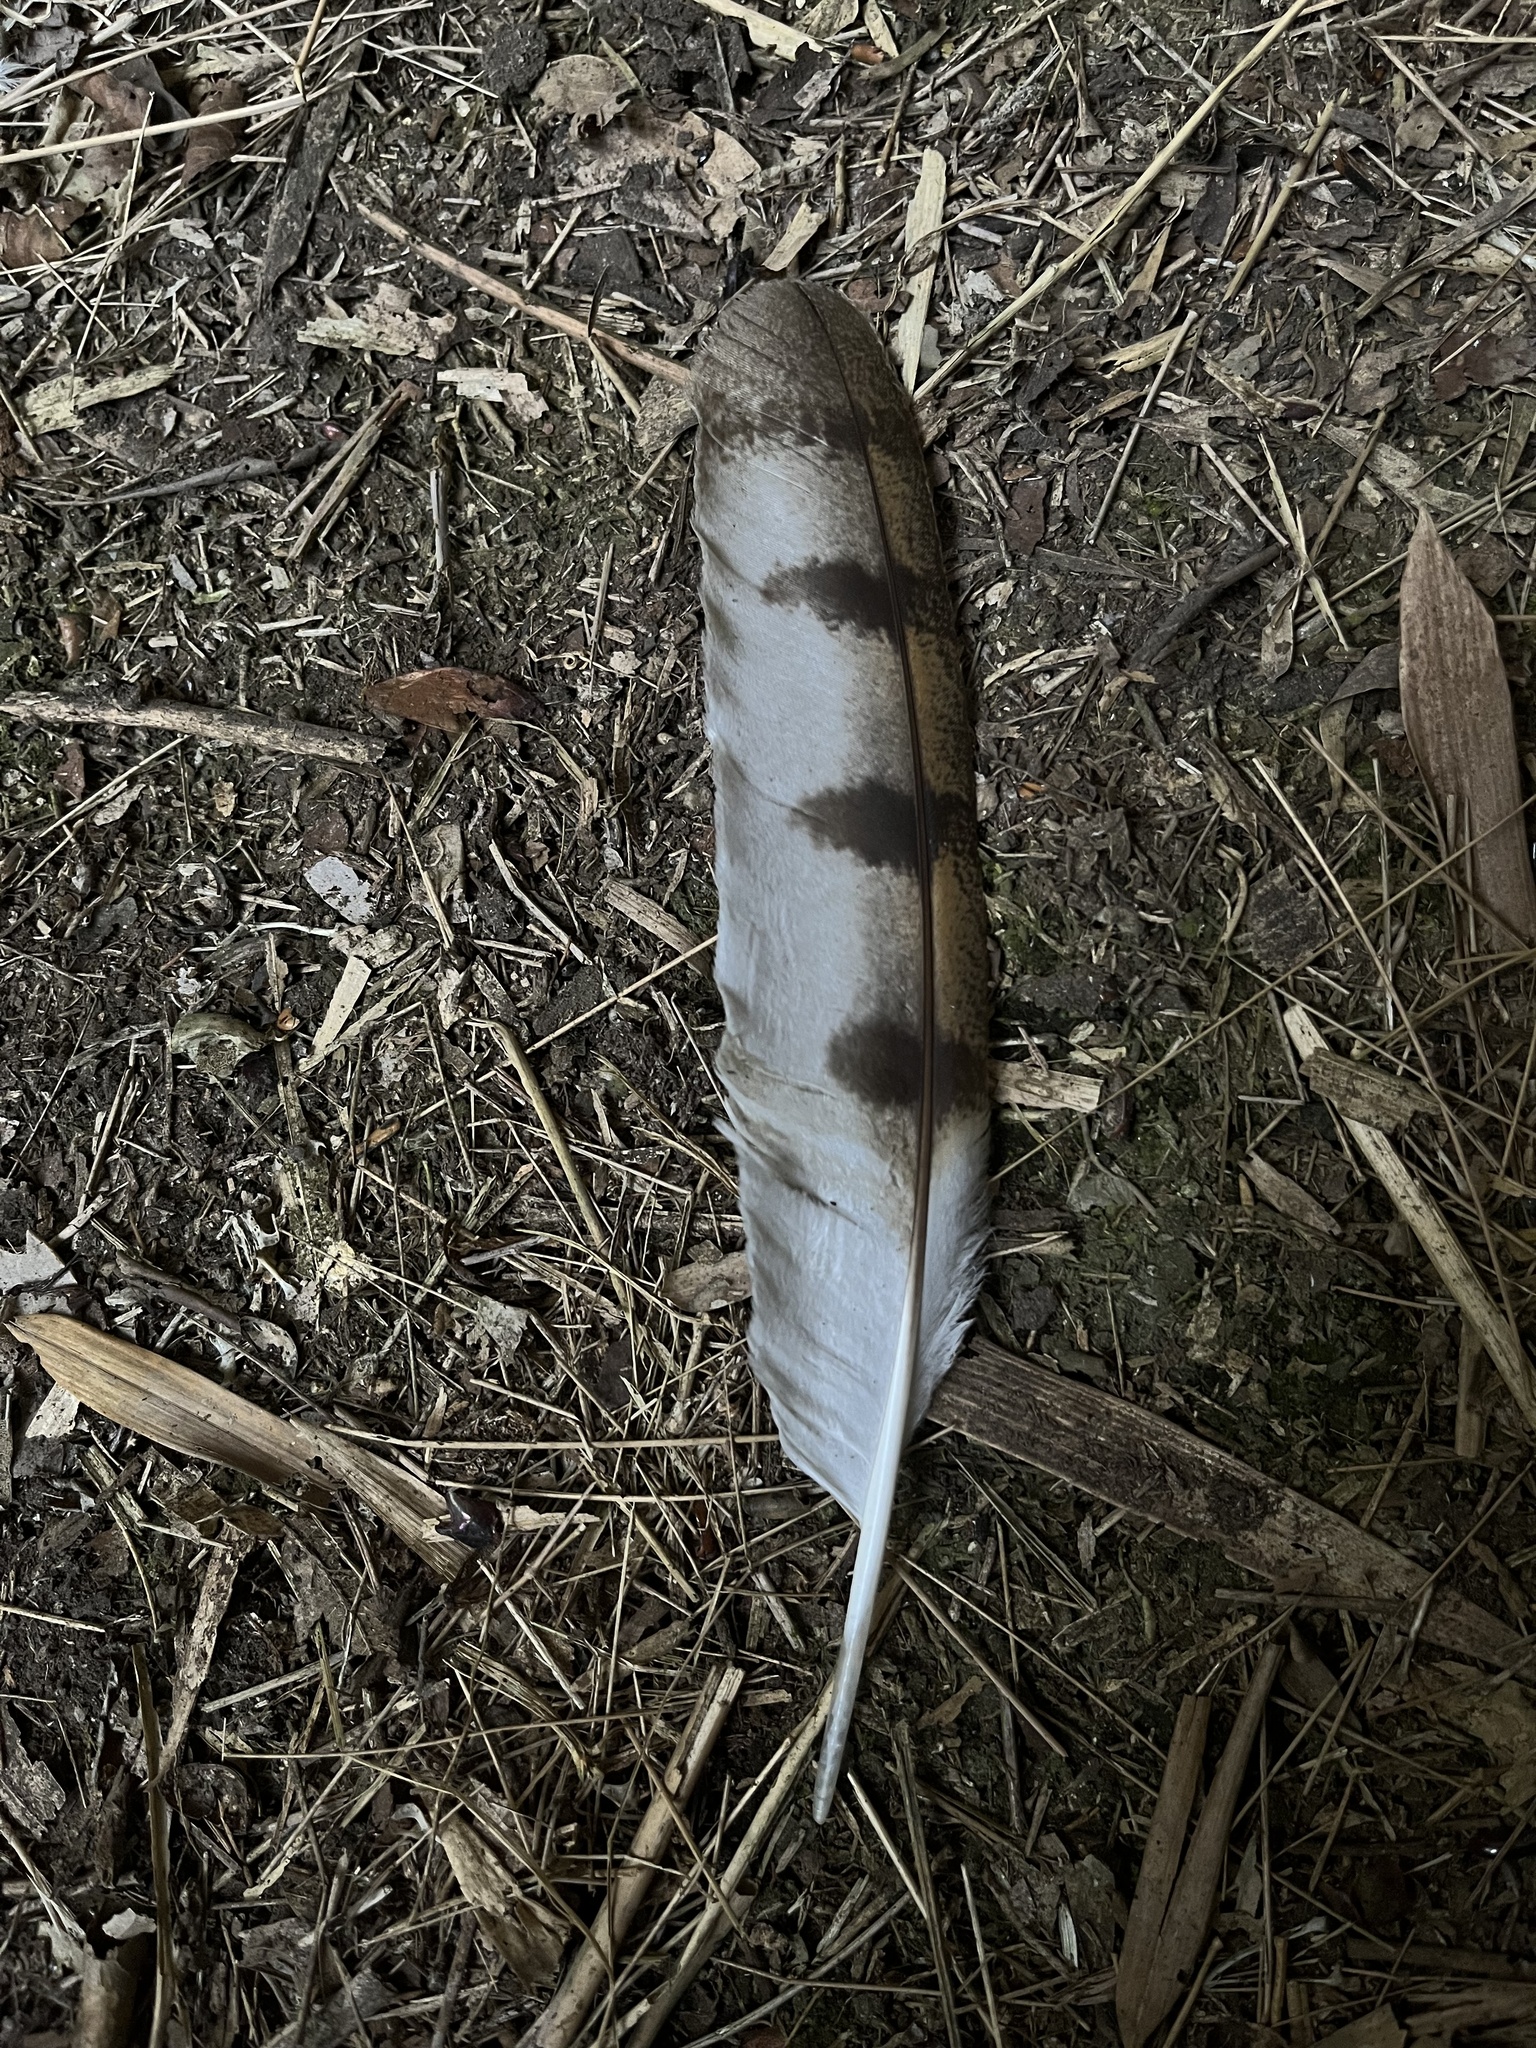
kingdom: Animalia
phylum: Chordata
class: Aves
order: Strigiformes
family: Tytonidae
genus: Tyto
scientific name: Tyto alba
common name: Barn owl
